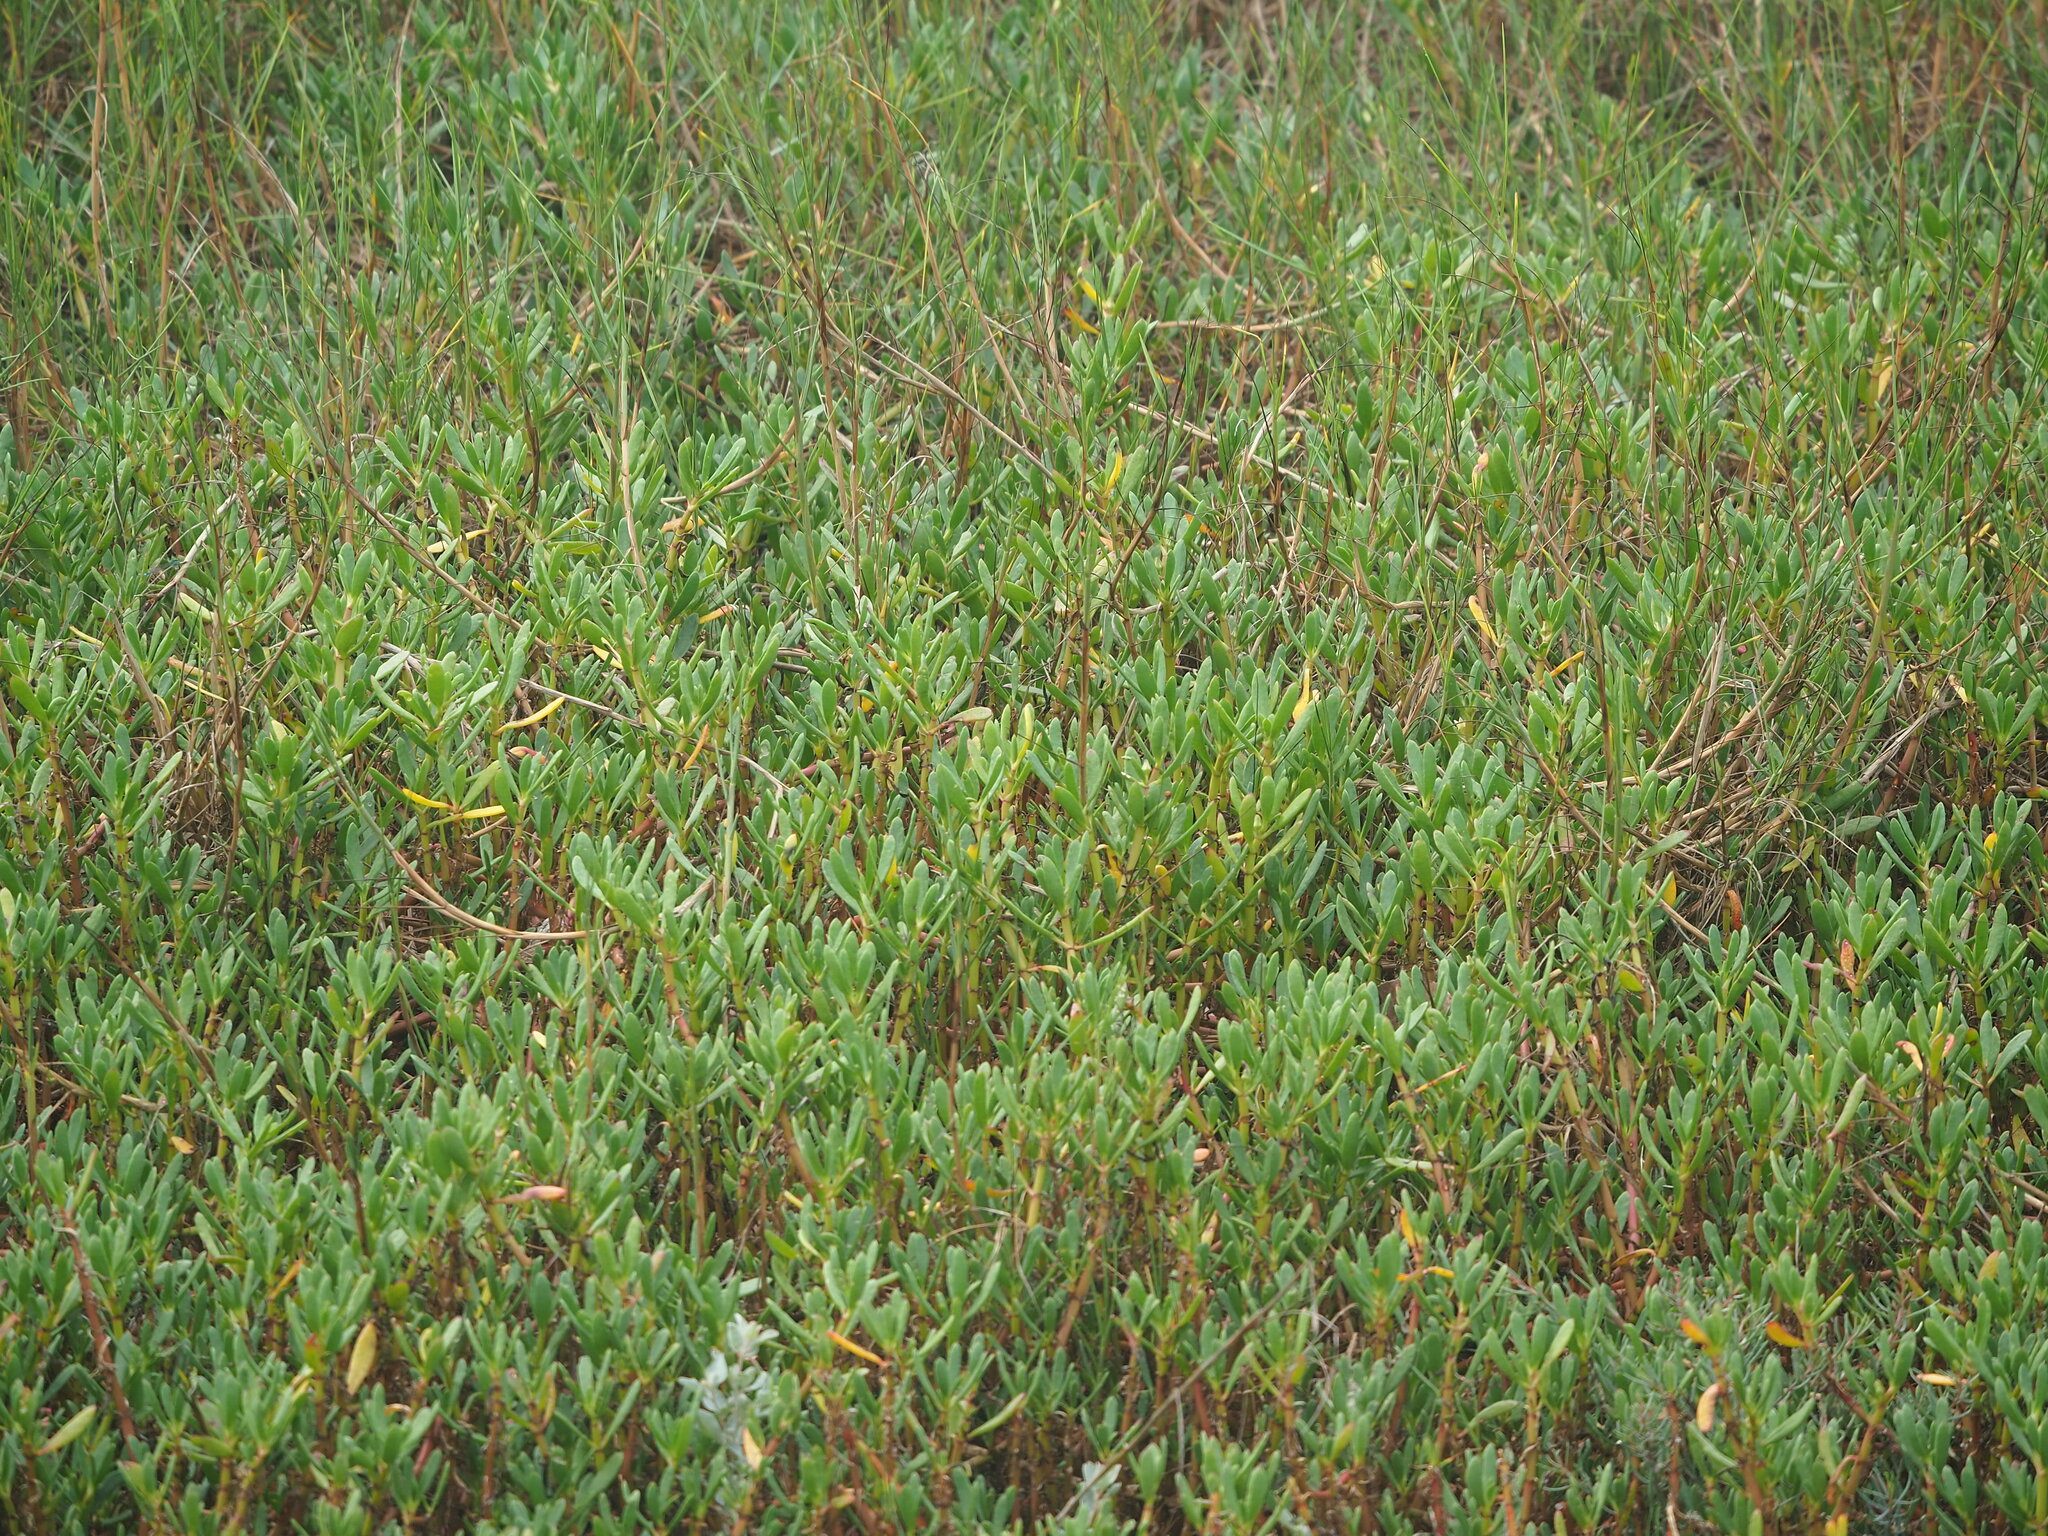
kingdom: Plantae
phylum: Tracheophyta
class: Magnoliopsida
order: Caryophyllales
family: Aizoaceae
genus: Sesuvium
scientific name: Sesuvium portulacastrum
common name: Sea-purslane
